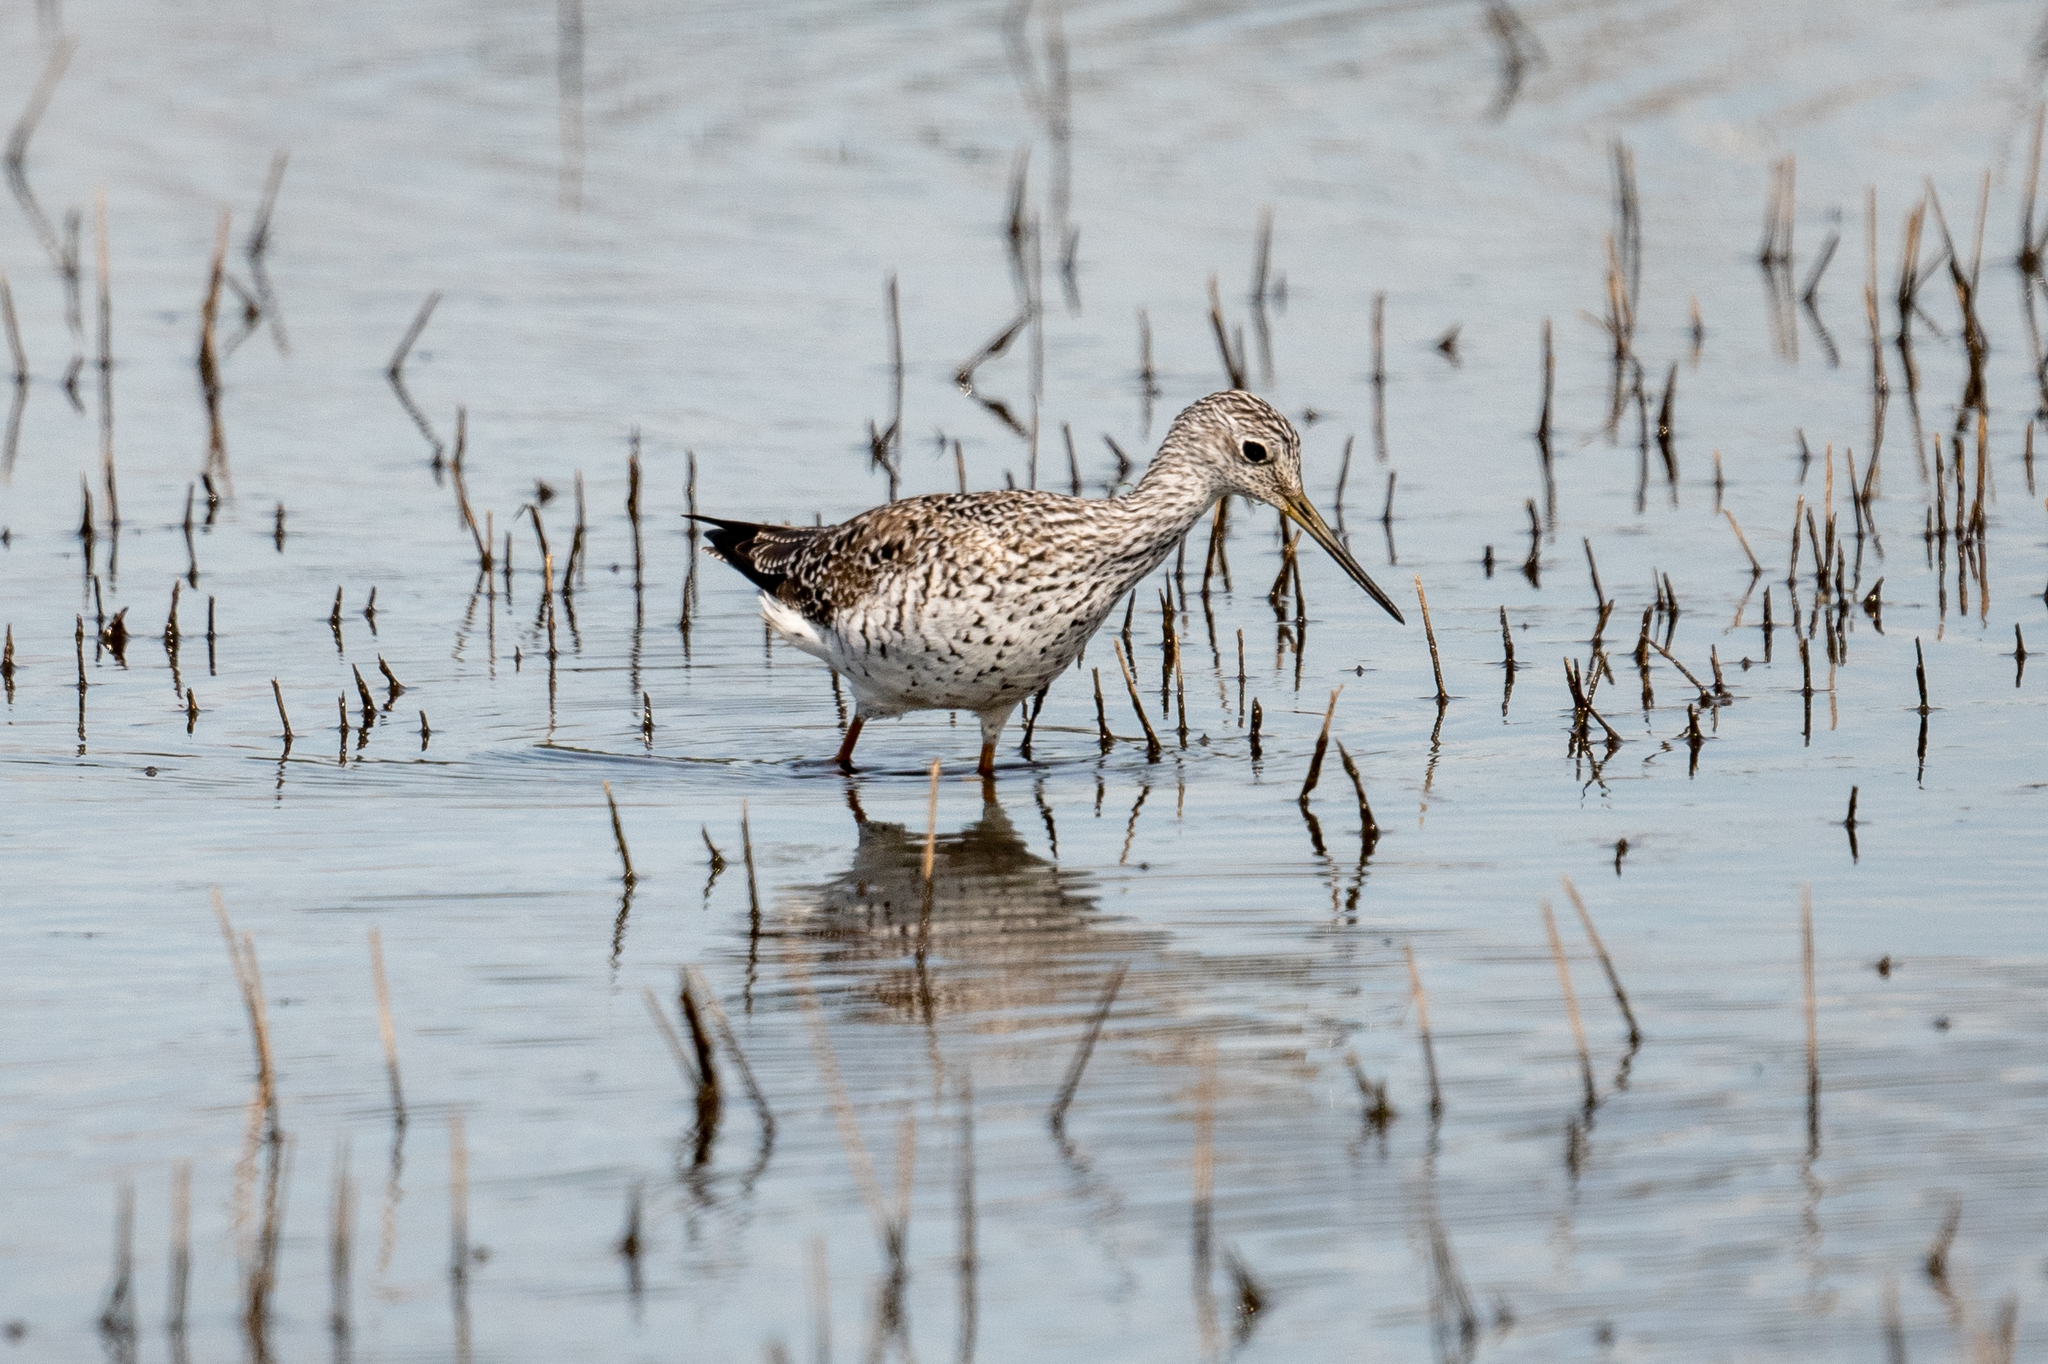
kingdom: Animalia
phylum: Chordata
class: Aves
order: Charadriiformes
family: Scolopacidae
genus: Tringa
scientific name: Tringa melanoleuca
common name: Greater yellowlegs
